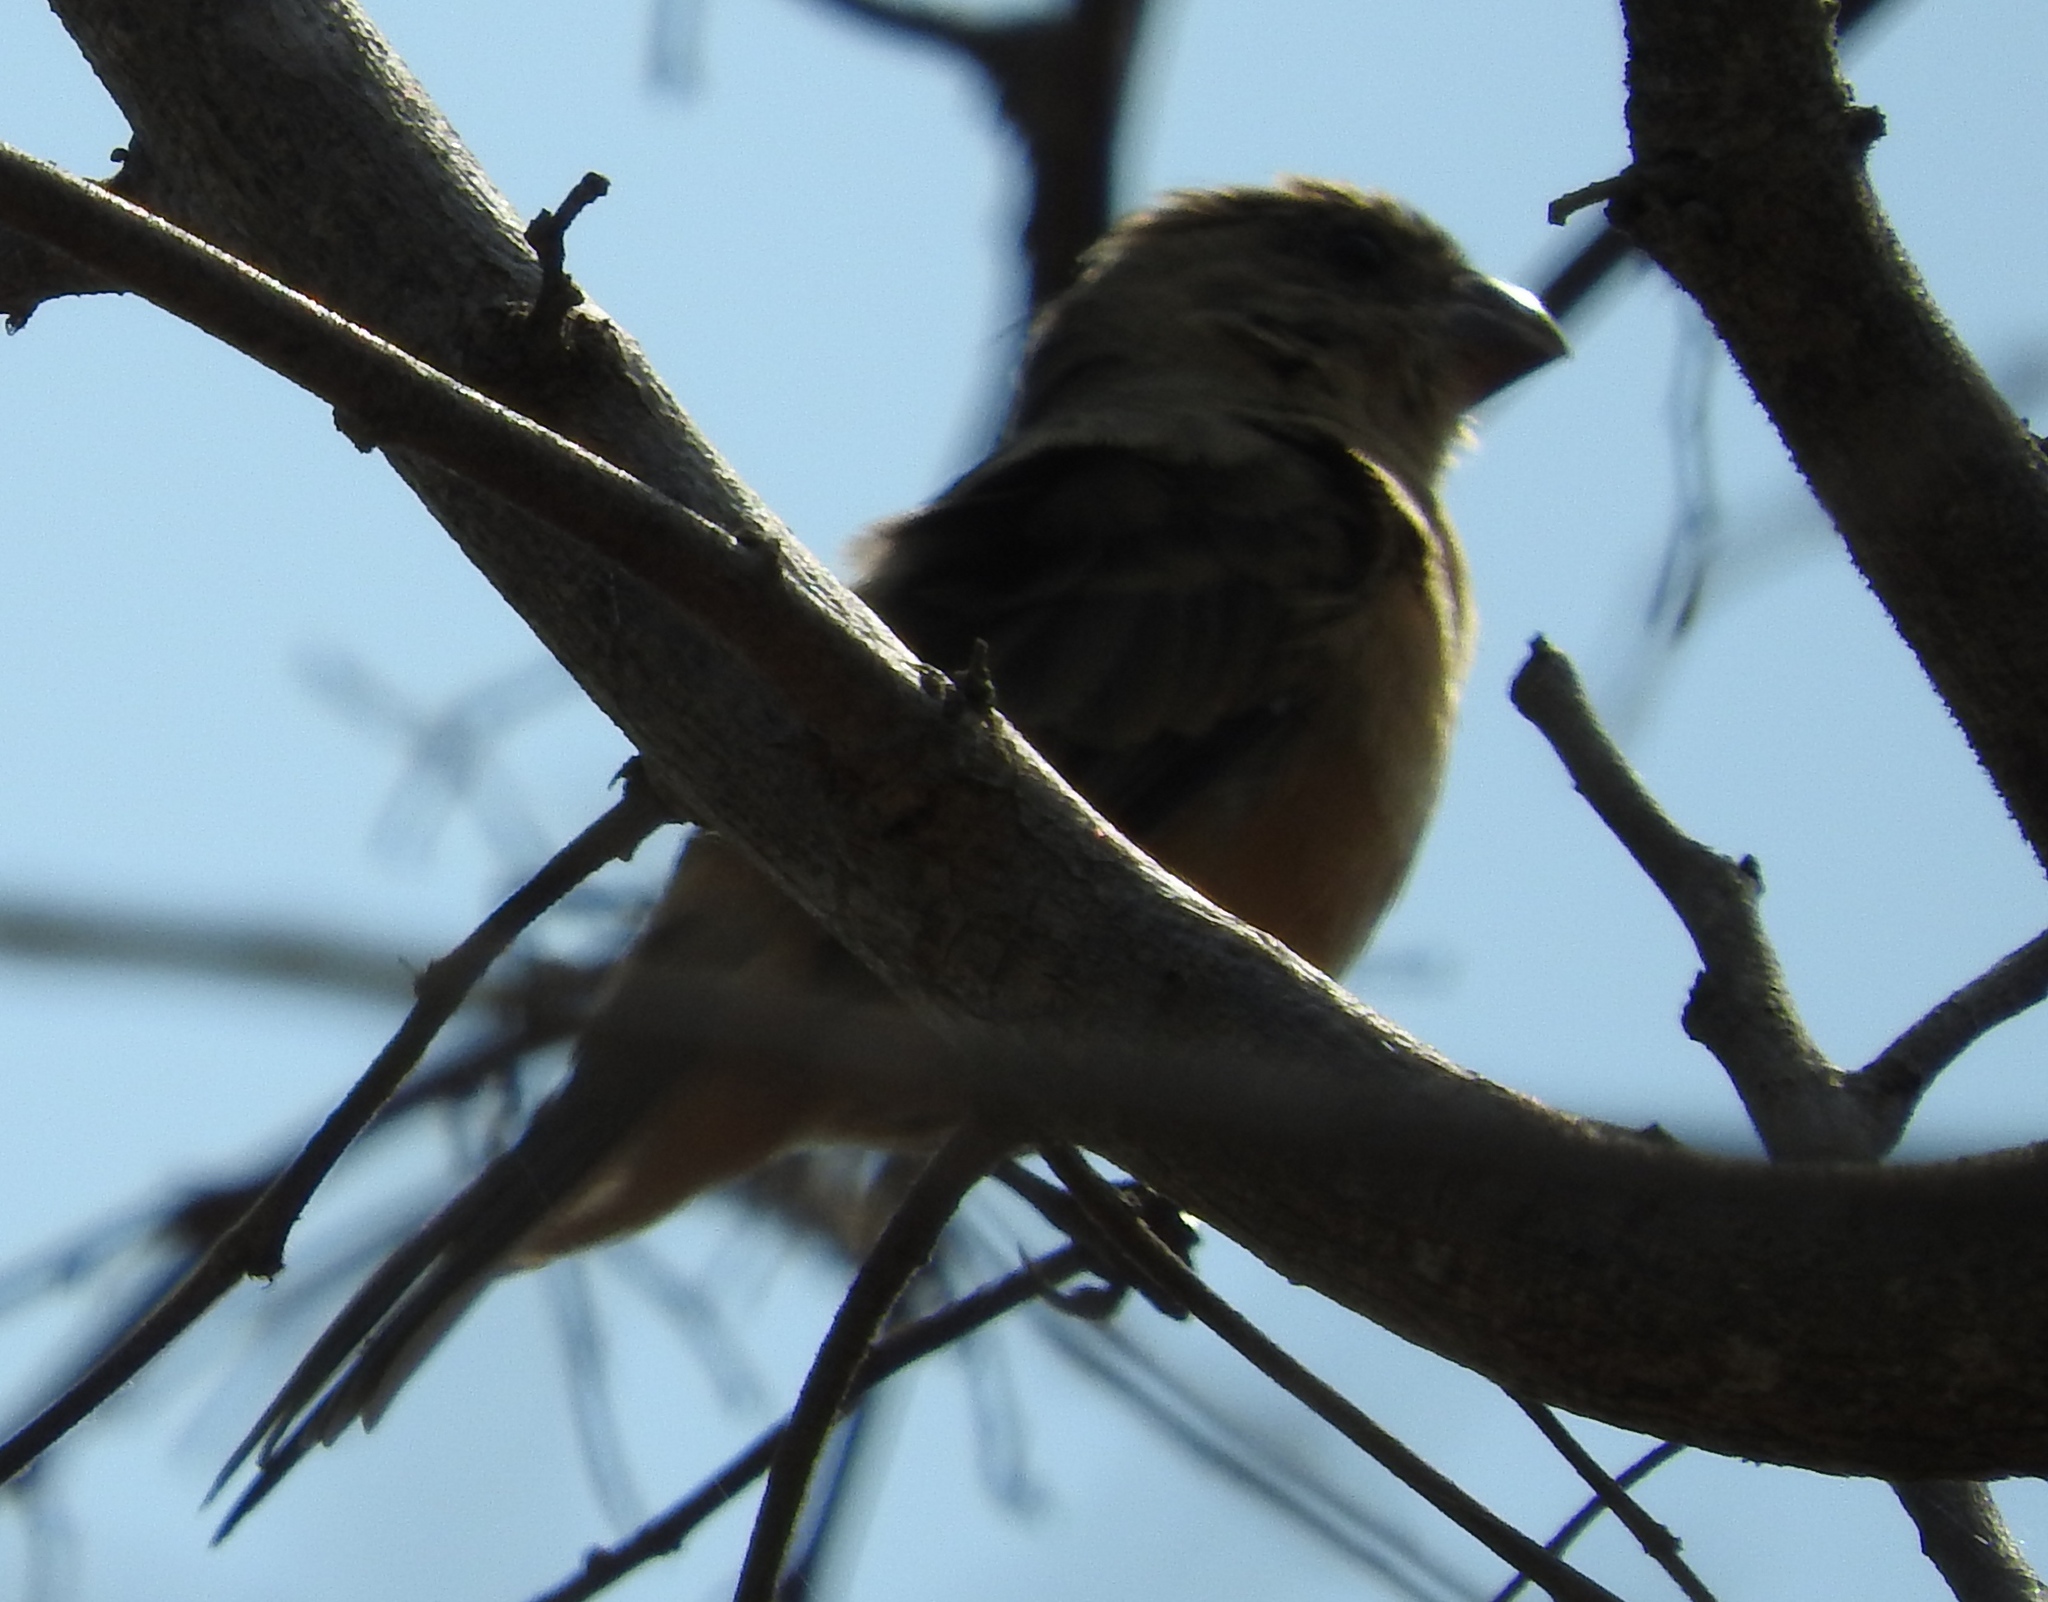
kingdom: Animalia
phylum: Chordata
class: Aves
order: Passeriformes
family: Thraupidae
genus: Sporophila
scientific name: Sporophila torqueola
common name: White-collared seedeater
